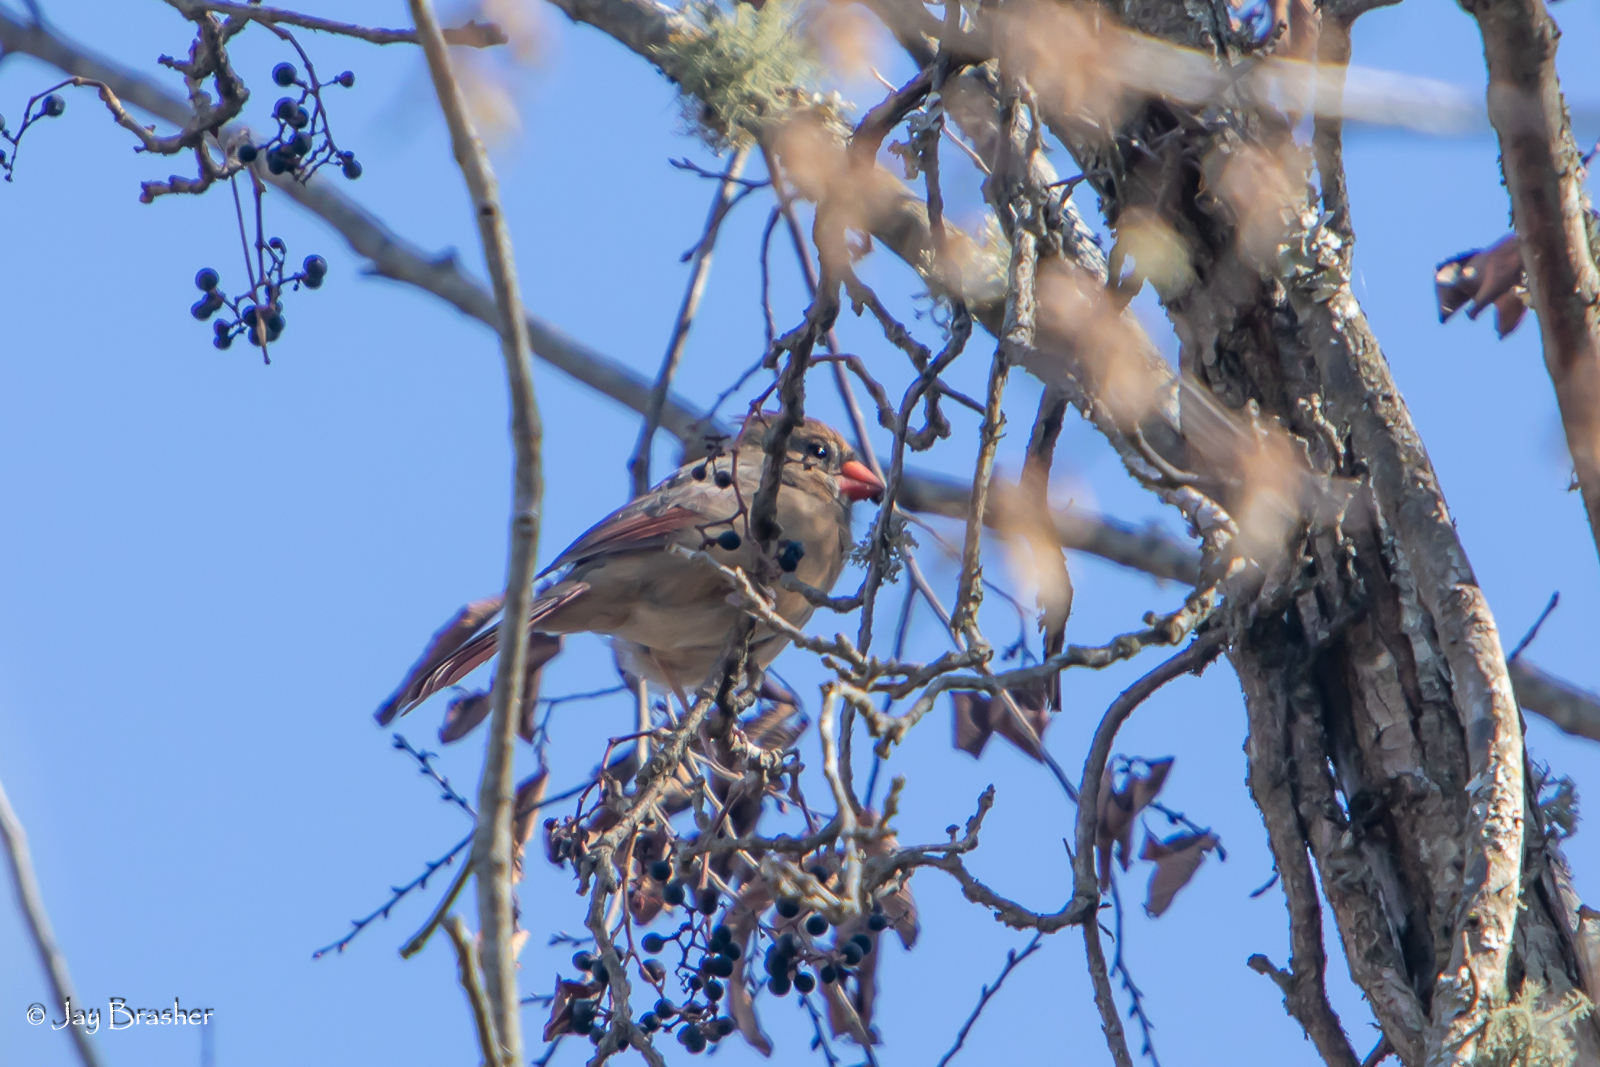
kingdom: Animalia
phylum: Chordata
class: Aves
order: Passeriformes
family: Cardinalidae
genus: Cardinalis
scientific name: Cardinalis cardinalis
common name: Northern cardinal
